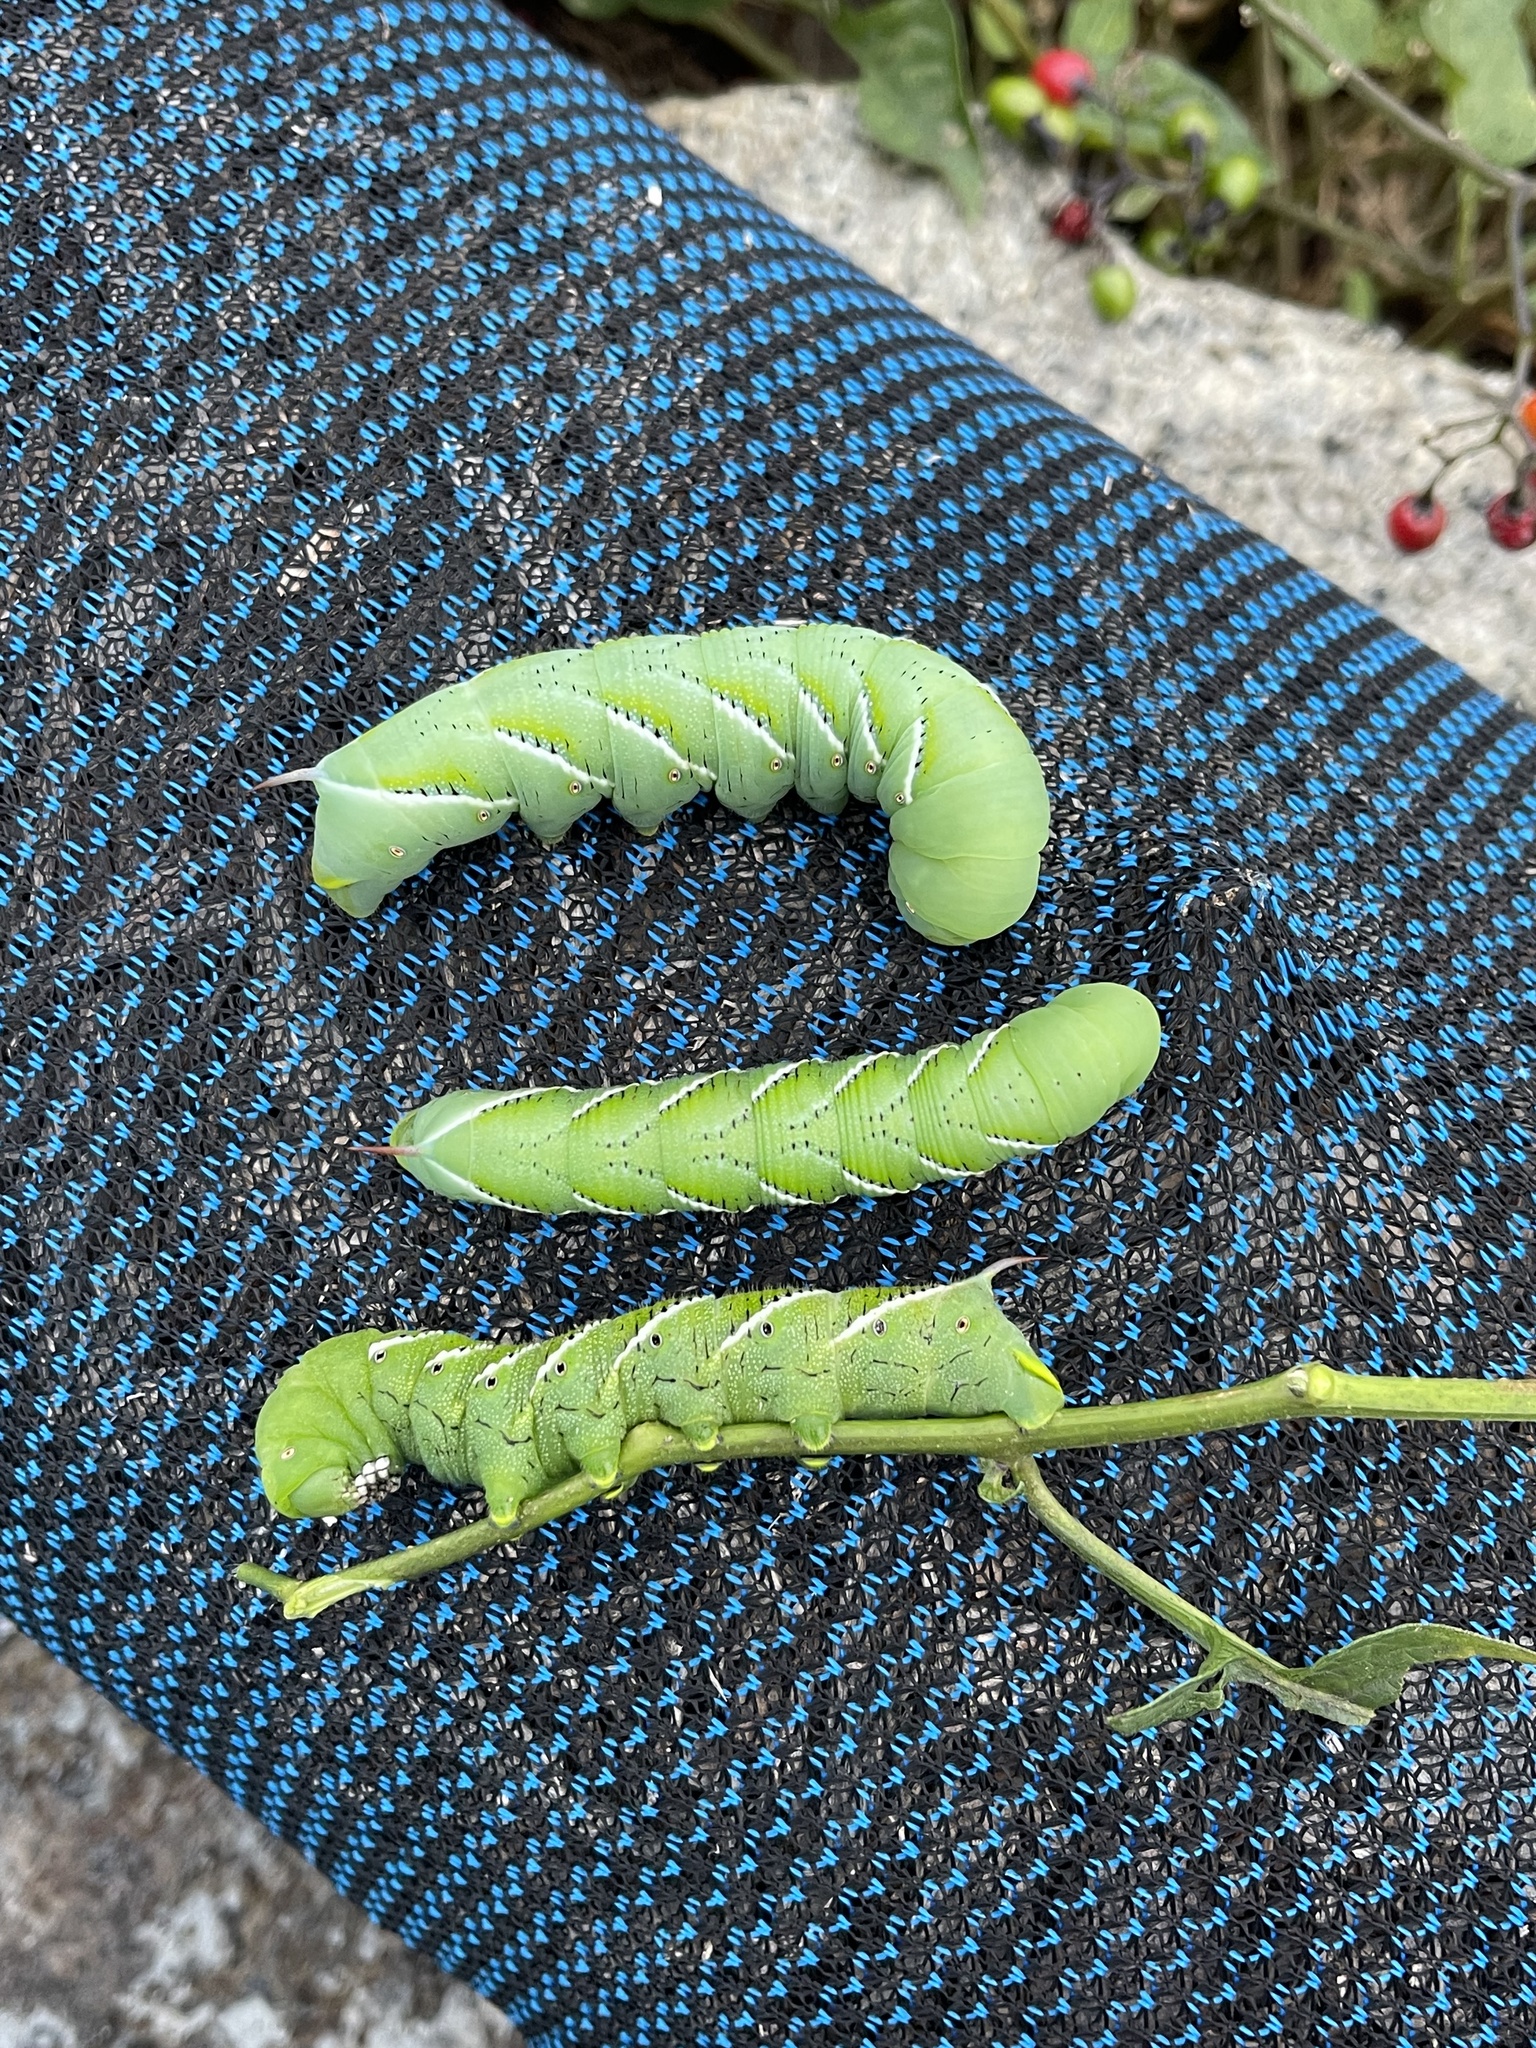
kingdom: Animalia
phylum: Arthropoda
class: Insecta
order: Lepidoptera
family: Sphingidae
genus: Manduca
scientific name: Manduca sexta
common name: Carolina sphinx
